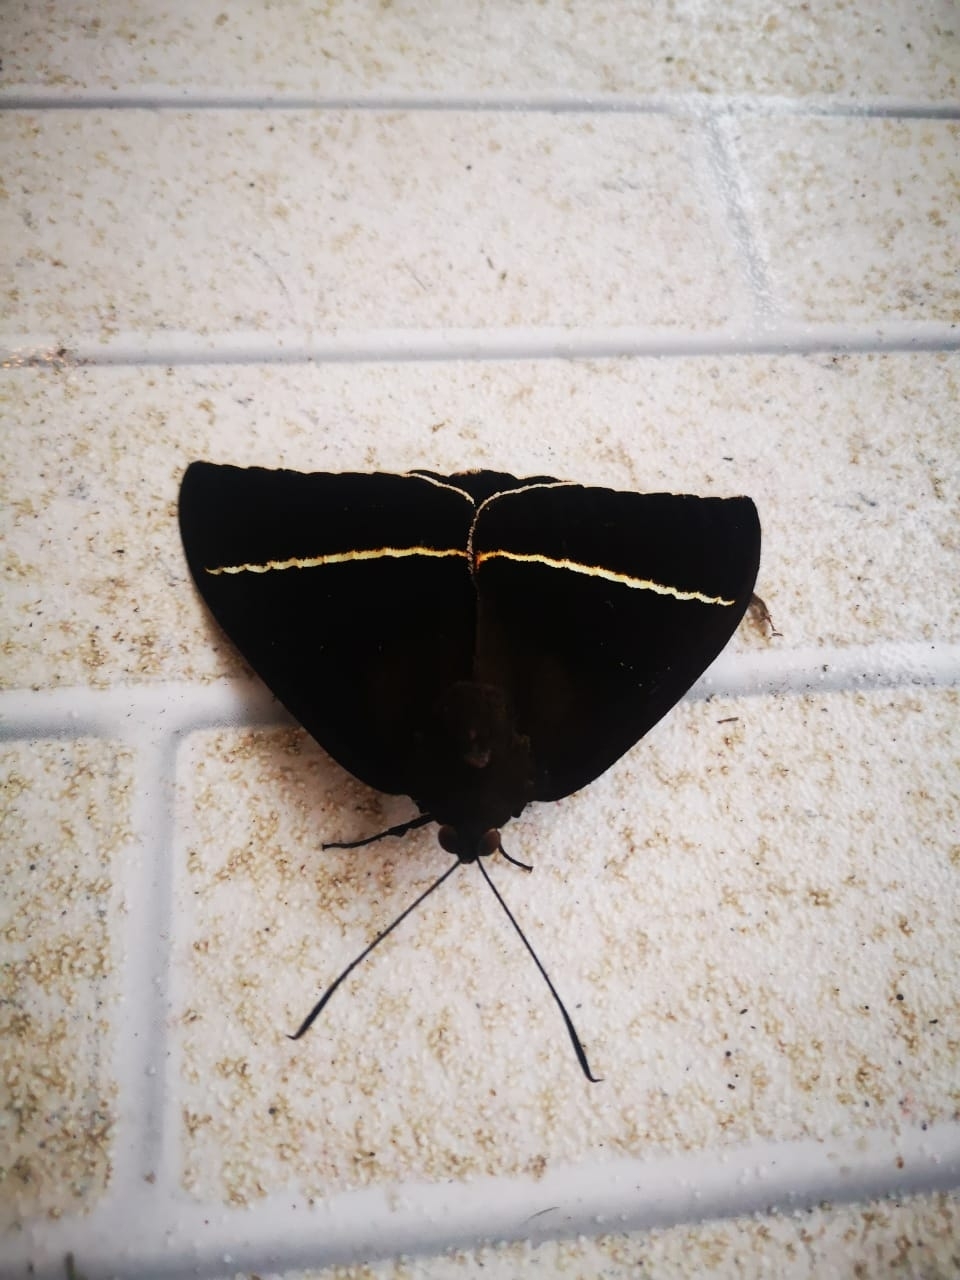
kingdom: Animalia
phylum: Arthropoda
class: Insecta
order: Lepidoptera
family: Castniidae
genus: Amauta
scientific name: Amauta procera
